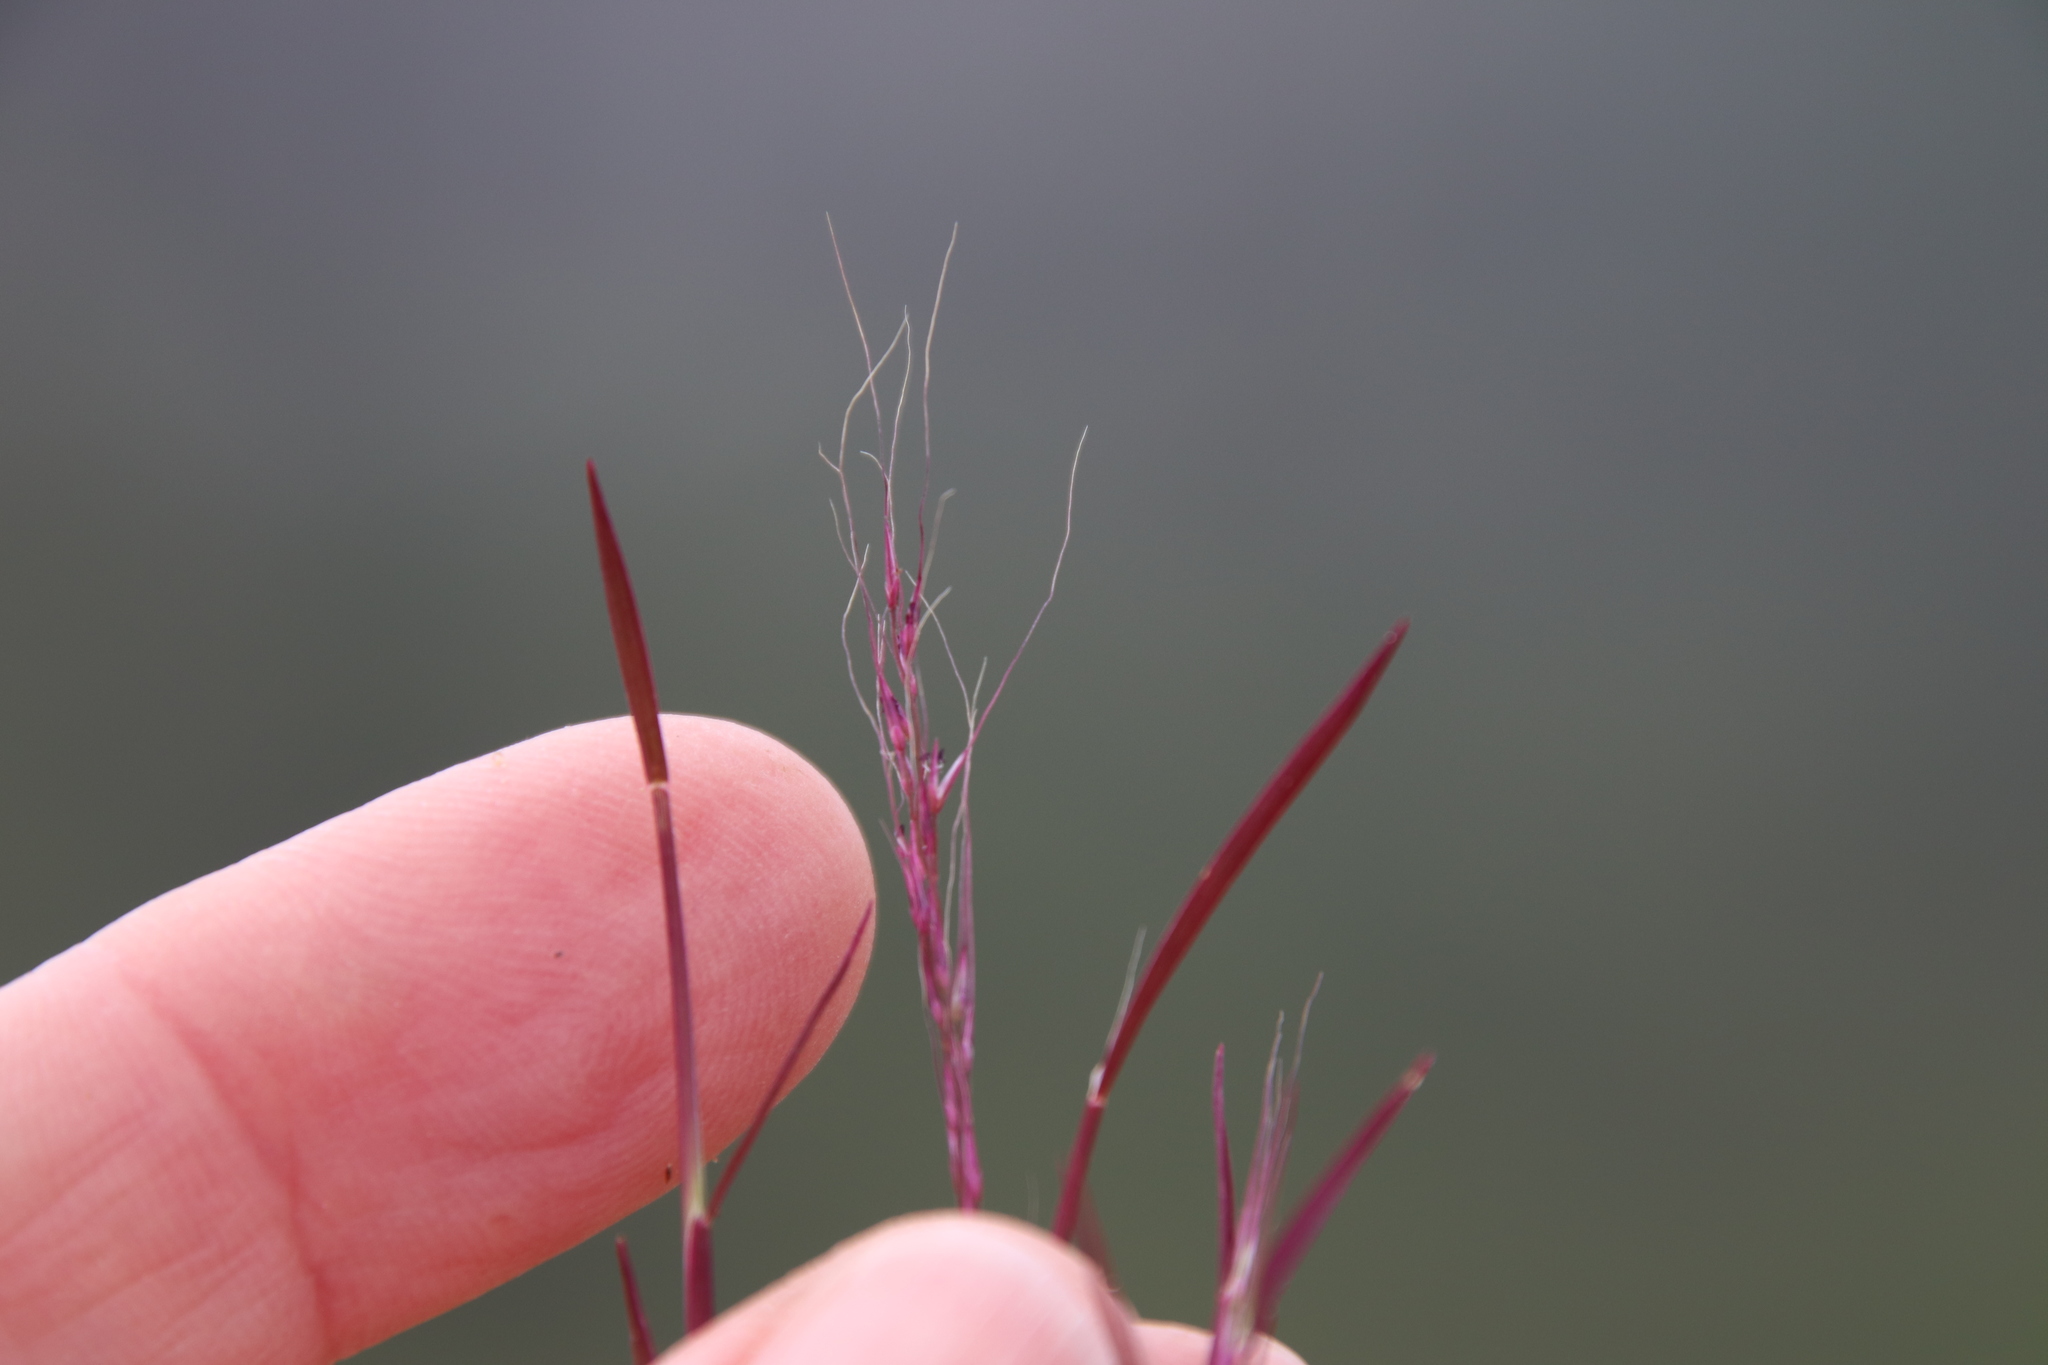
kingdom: Plantae
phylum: Tracheophyta
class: Liliopsida
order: Poales
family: Poaceae
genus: Muhlenbergia
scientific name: Muhlenbergia microsperma
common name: Littleseed muhly
